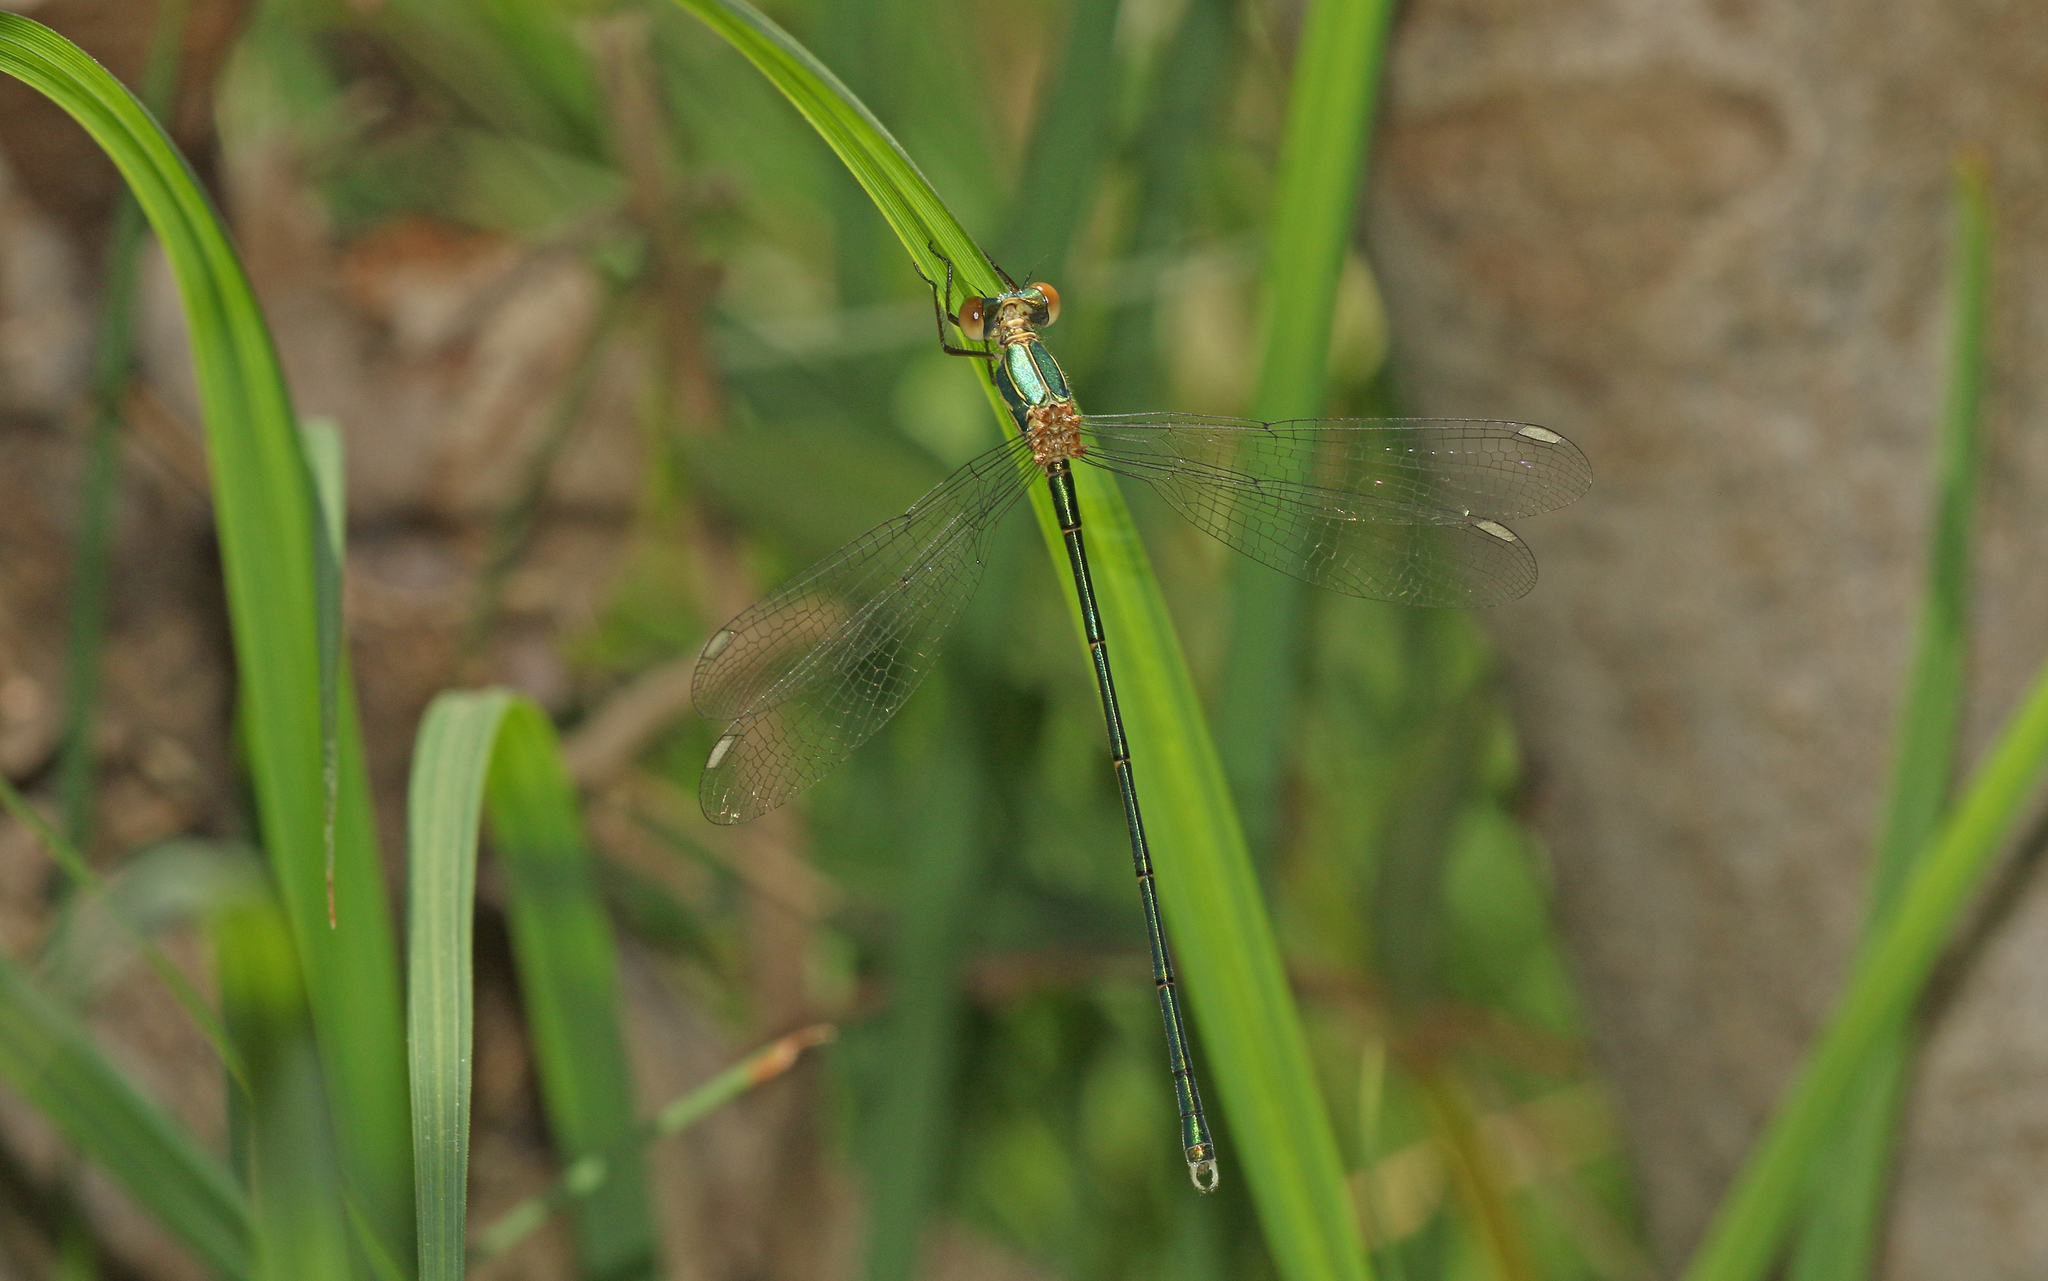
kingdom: Animalia
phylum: Arthropoda
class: Insecta
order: Odonata
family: Lestidae
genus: Chalcolestes
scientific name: Chalcolestes viridis
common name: Green emerald damselfly
